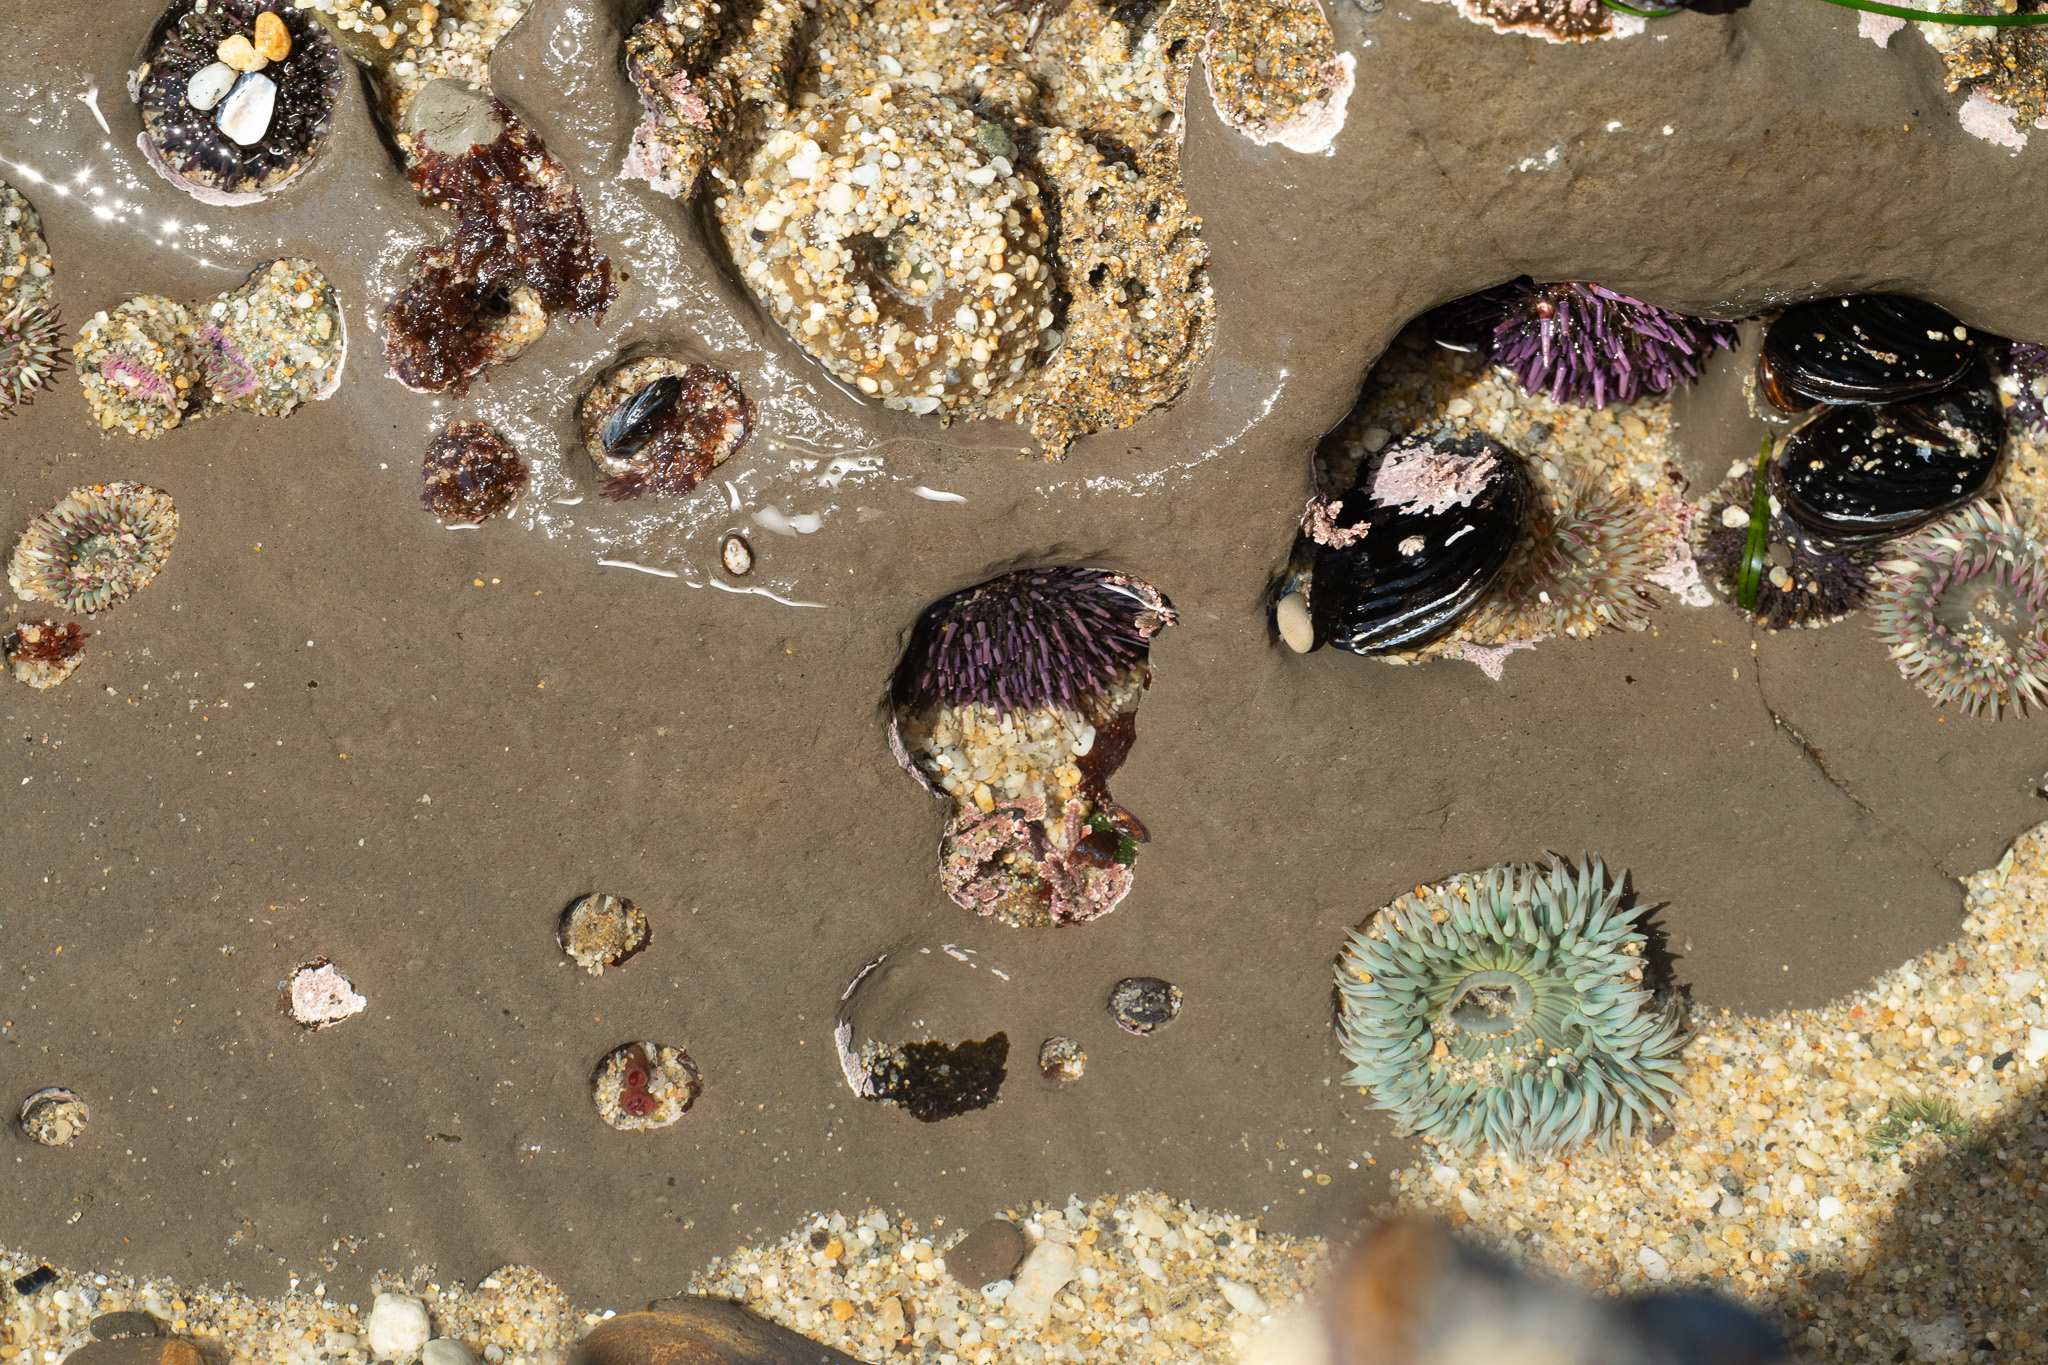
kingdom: Animalia
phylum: Echinodermata
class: Echinoidea
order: Camarodonta
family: Strongylocentrotidae
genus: Strongylocentrotus
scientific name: Strongylocentrotus purpuratus
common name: Purple sea urchin
